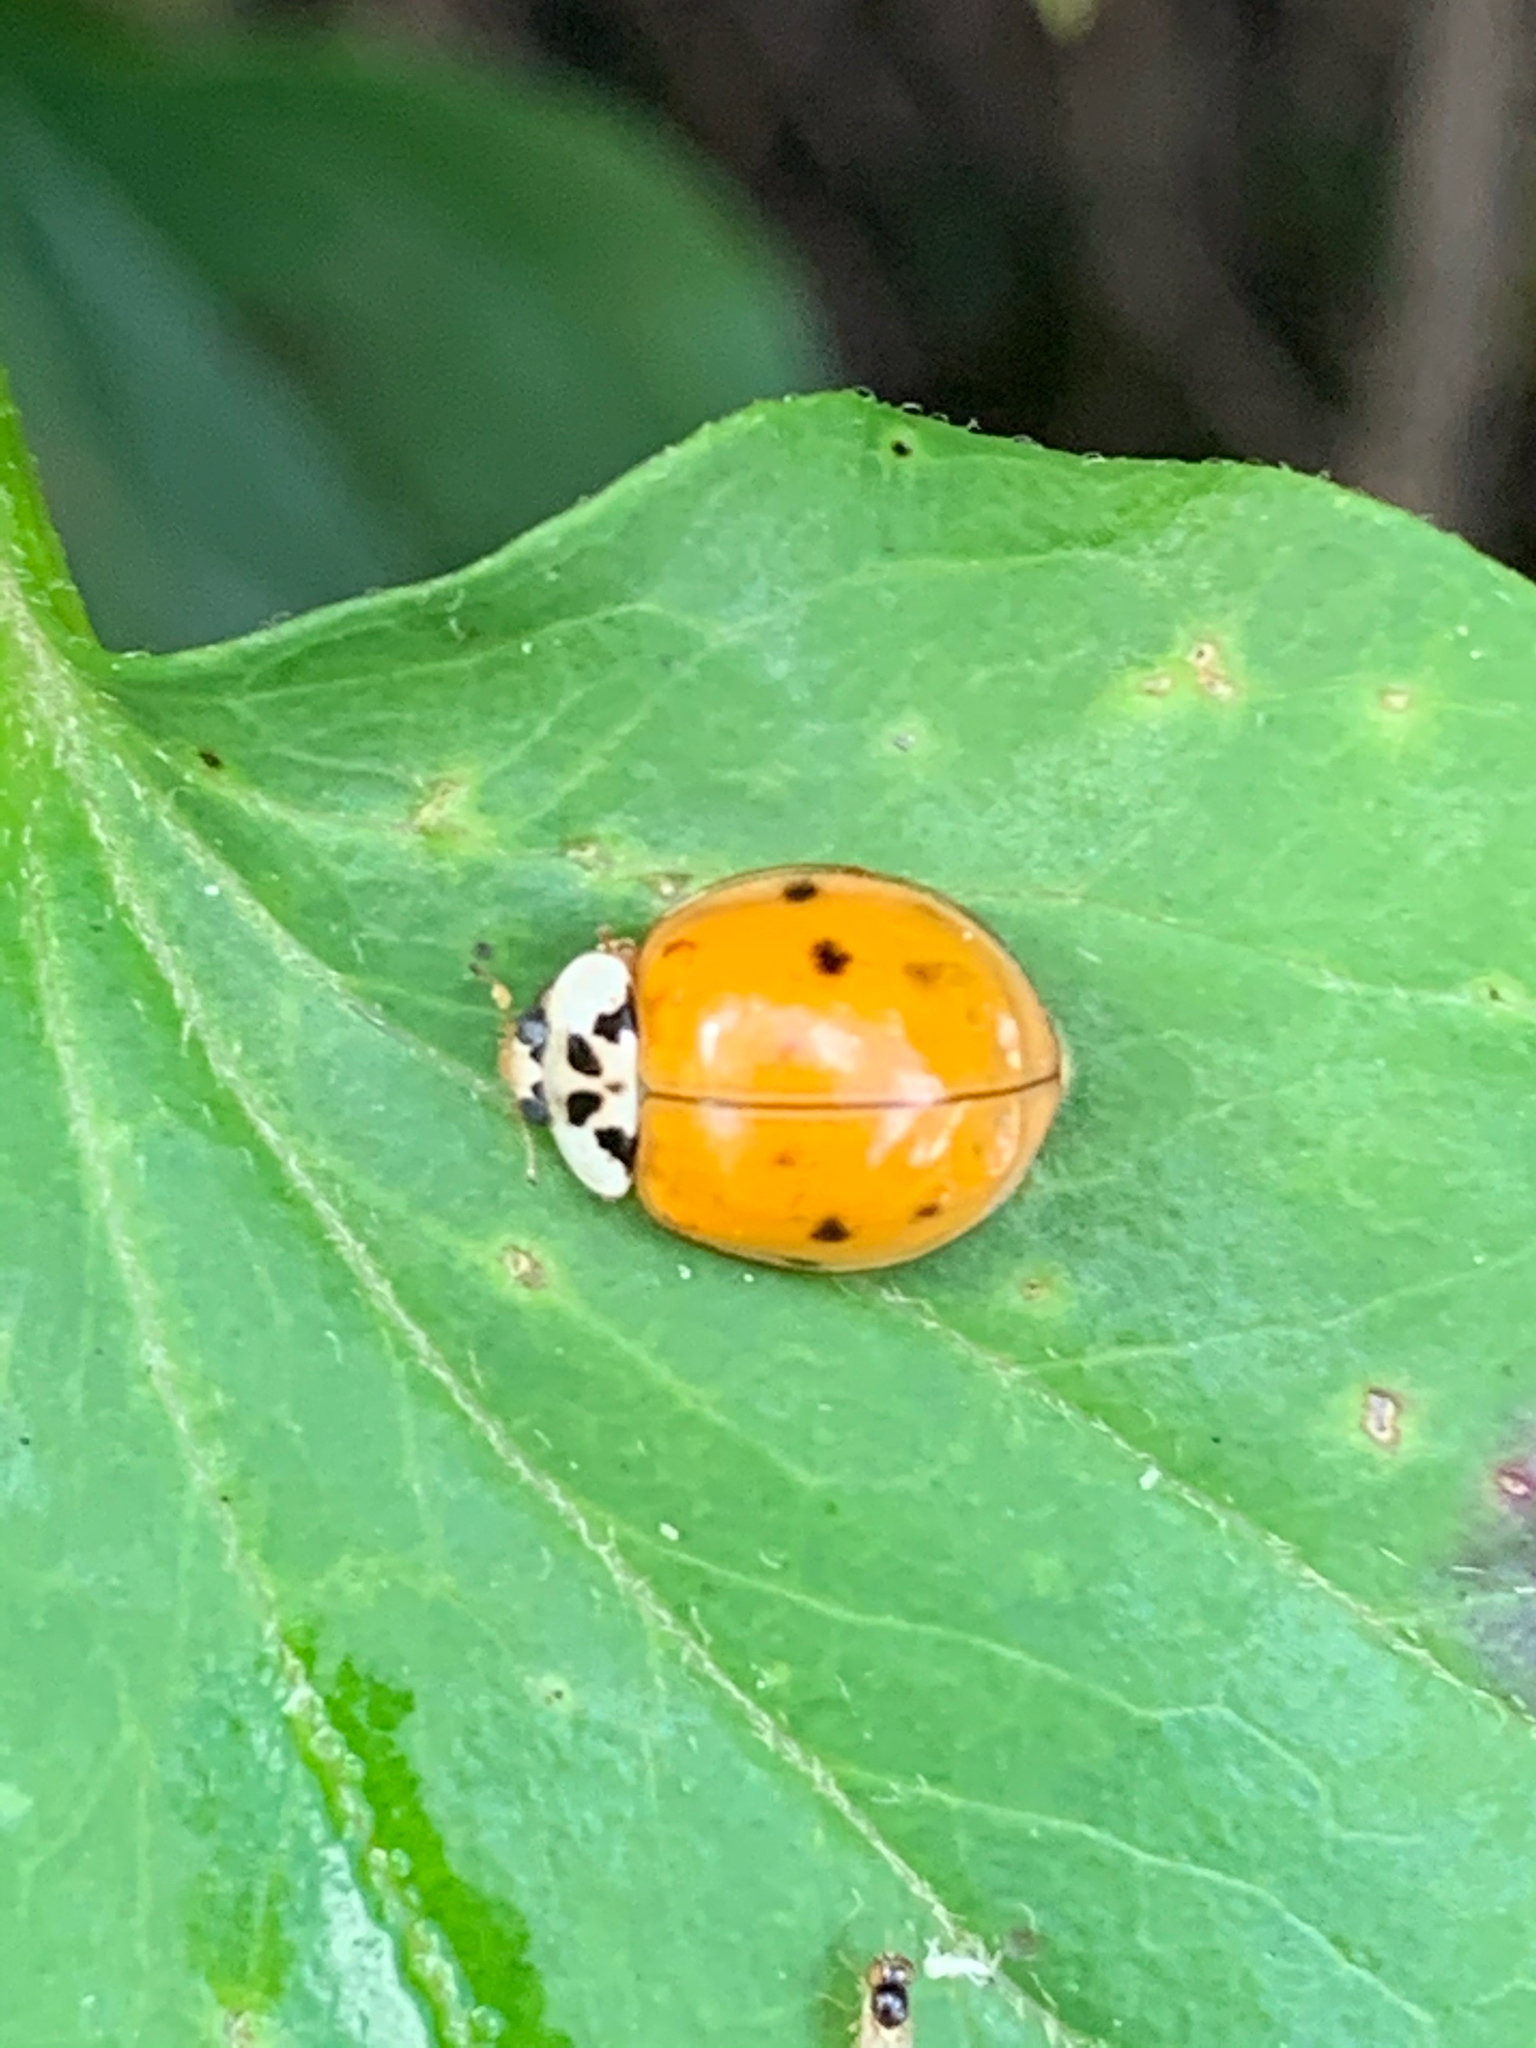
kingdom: Animalia
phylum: Arthropoda
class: Insecta
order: Coleoptera
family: Coccinellidae
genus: Harmonia
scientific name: Harmonia axyridis
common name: Harlequin ladybird
